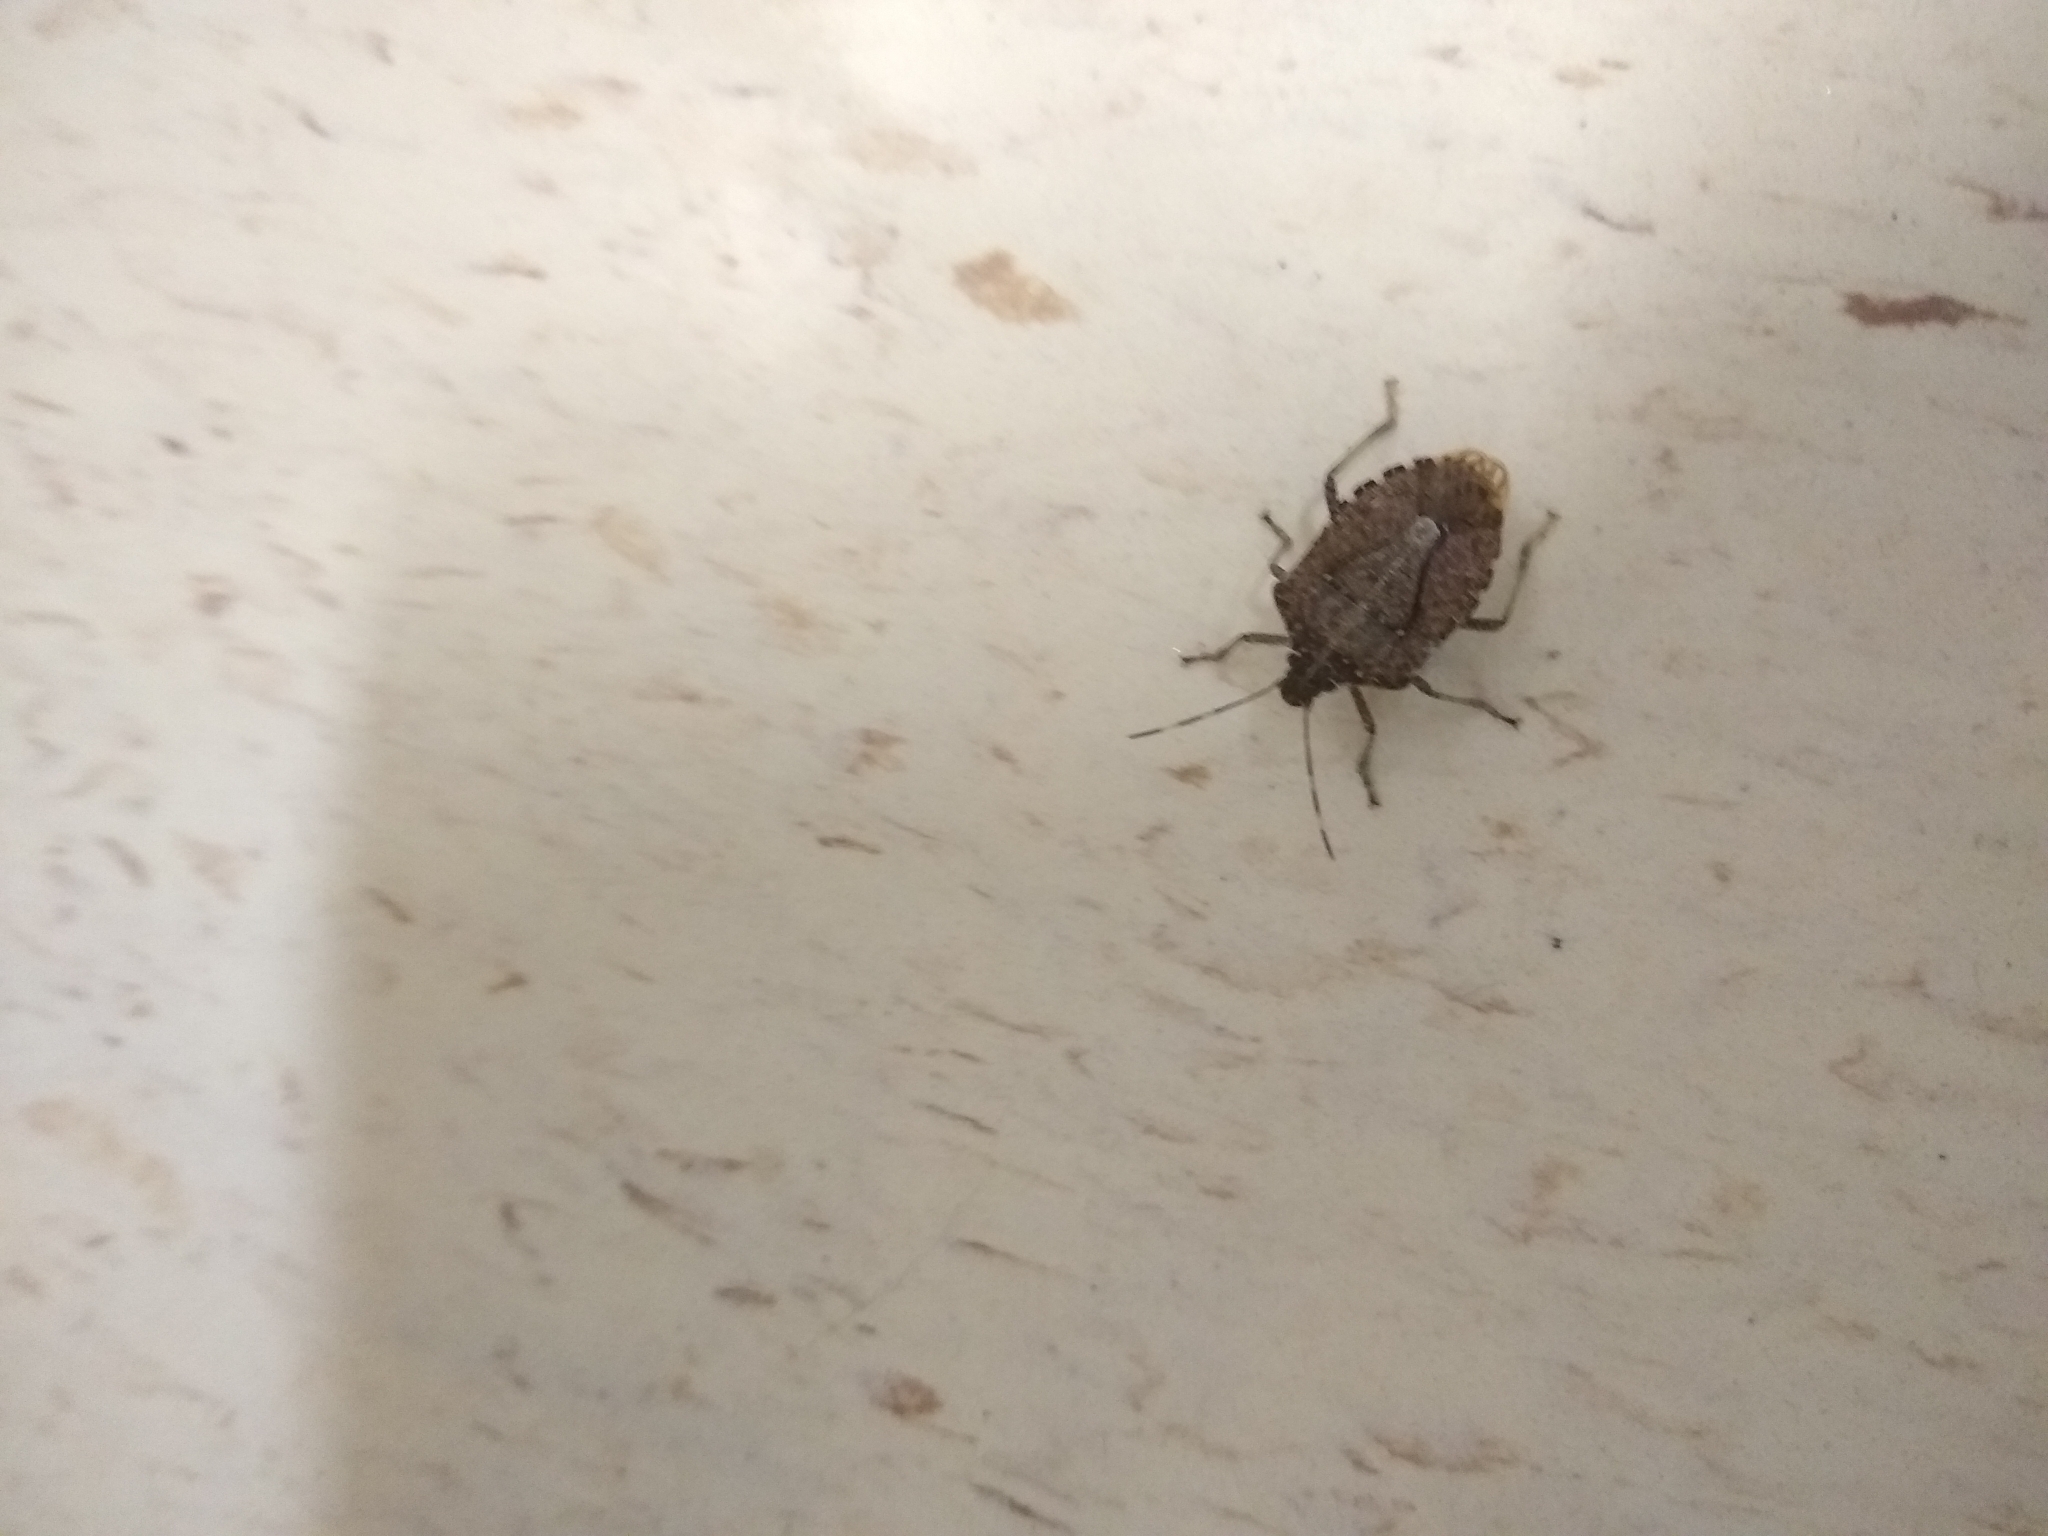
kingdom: Animalia
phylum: Arthropoda
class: Insecta
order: Hemiptera
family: Pentatomidae
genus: Halyomorpha
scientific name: Halyomorpha halys
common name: Brown marmorated stink bug
